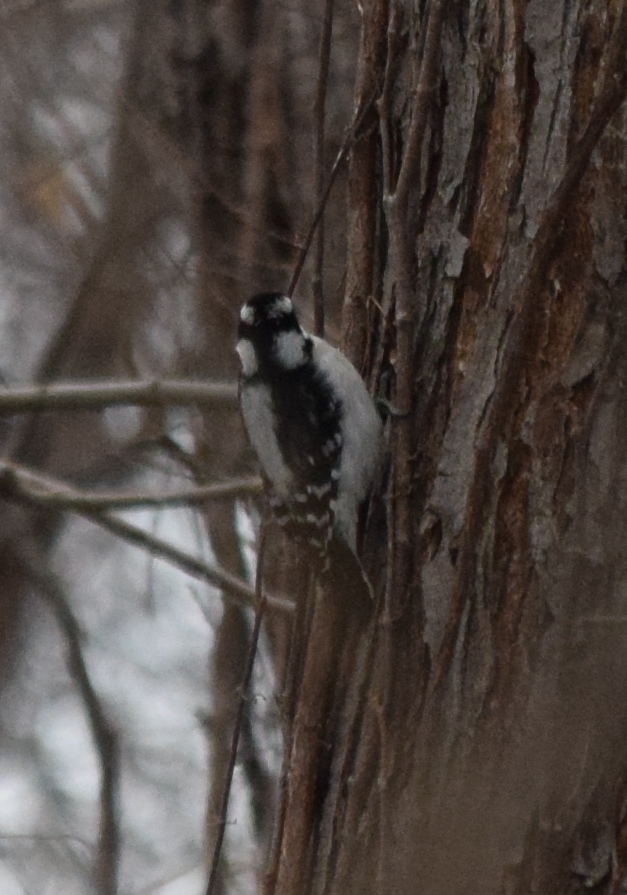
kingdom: Animalia
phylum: Chordata
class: Aves
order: Piciformes
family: Picidae
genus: Dryobates
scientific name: Dryobates pubescens
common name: Downy woodpecker
